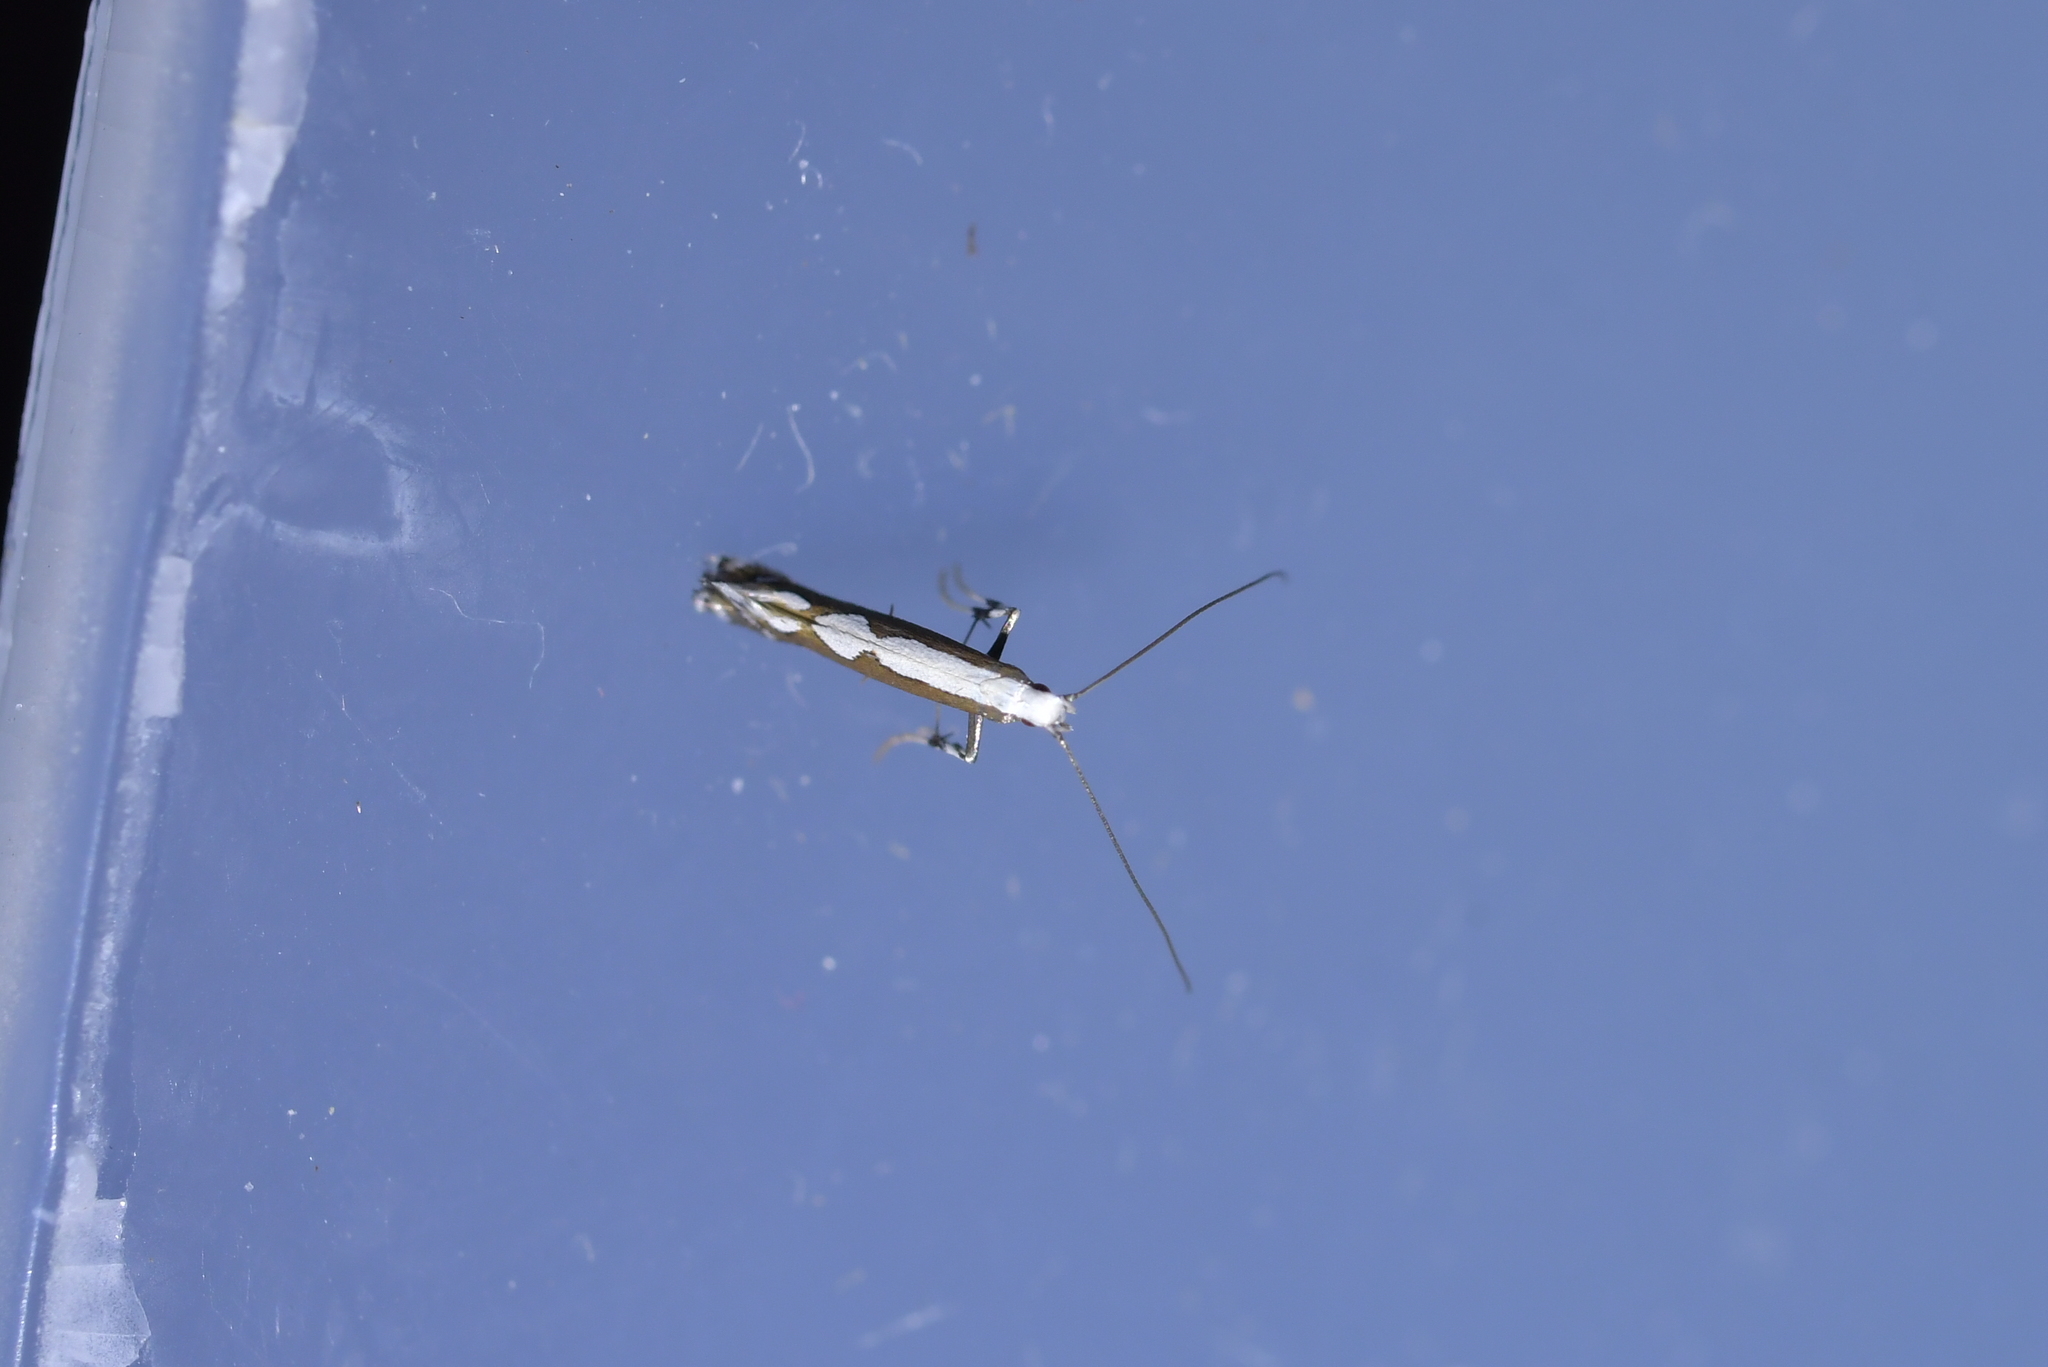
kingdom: Animalia
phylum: Arthropoda
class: Insecta
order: Lepidoptera
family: Gracillariidae
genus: Dialectica
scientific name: Dialectica scalariella
